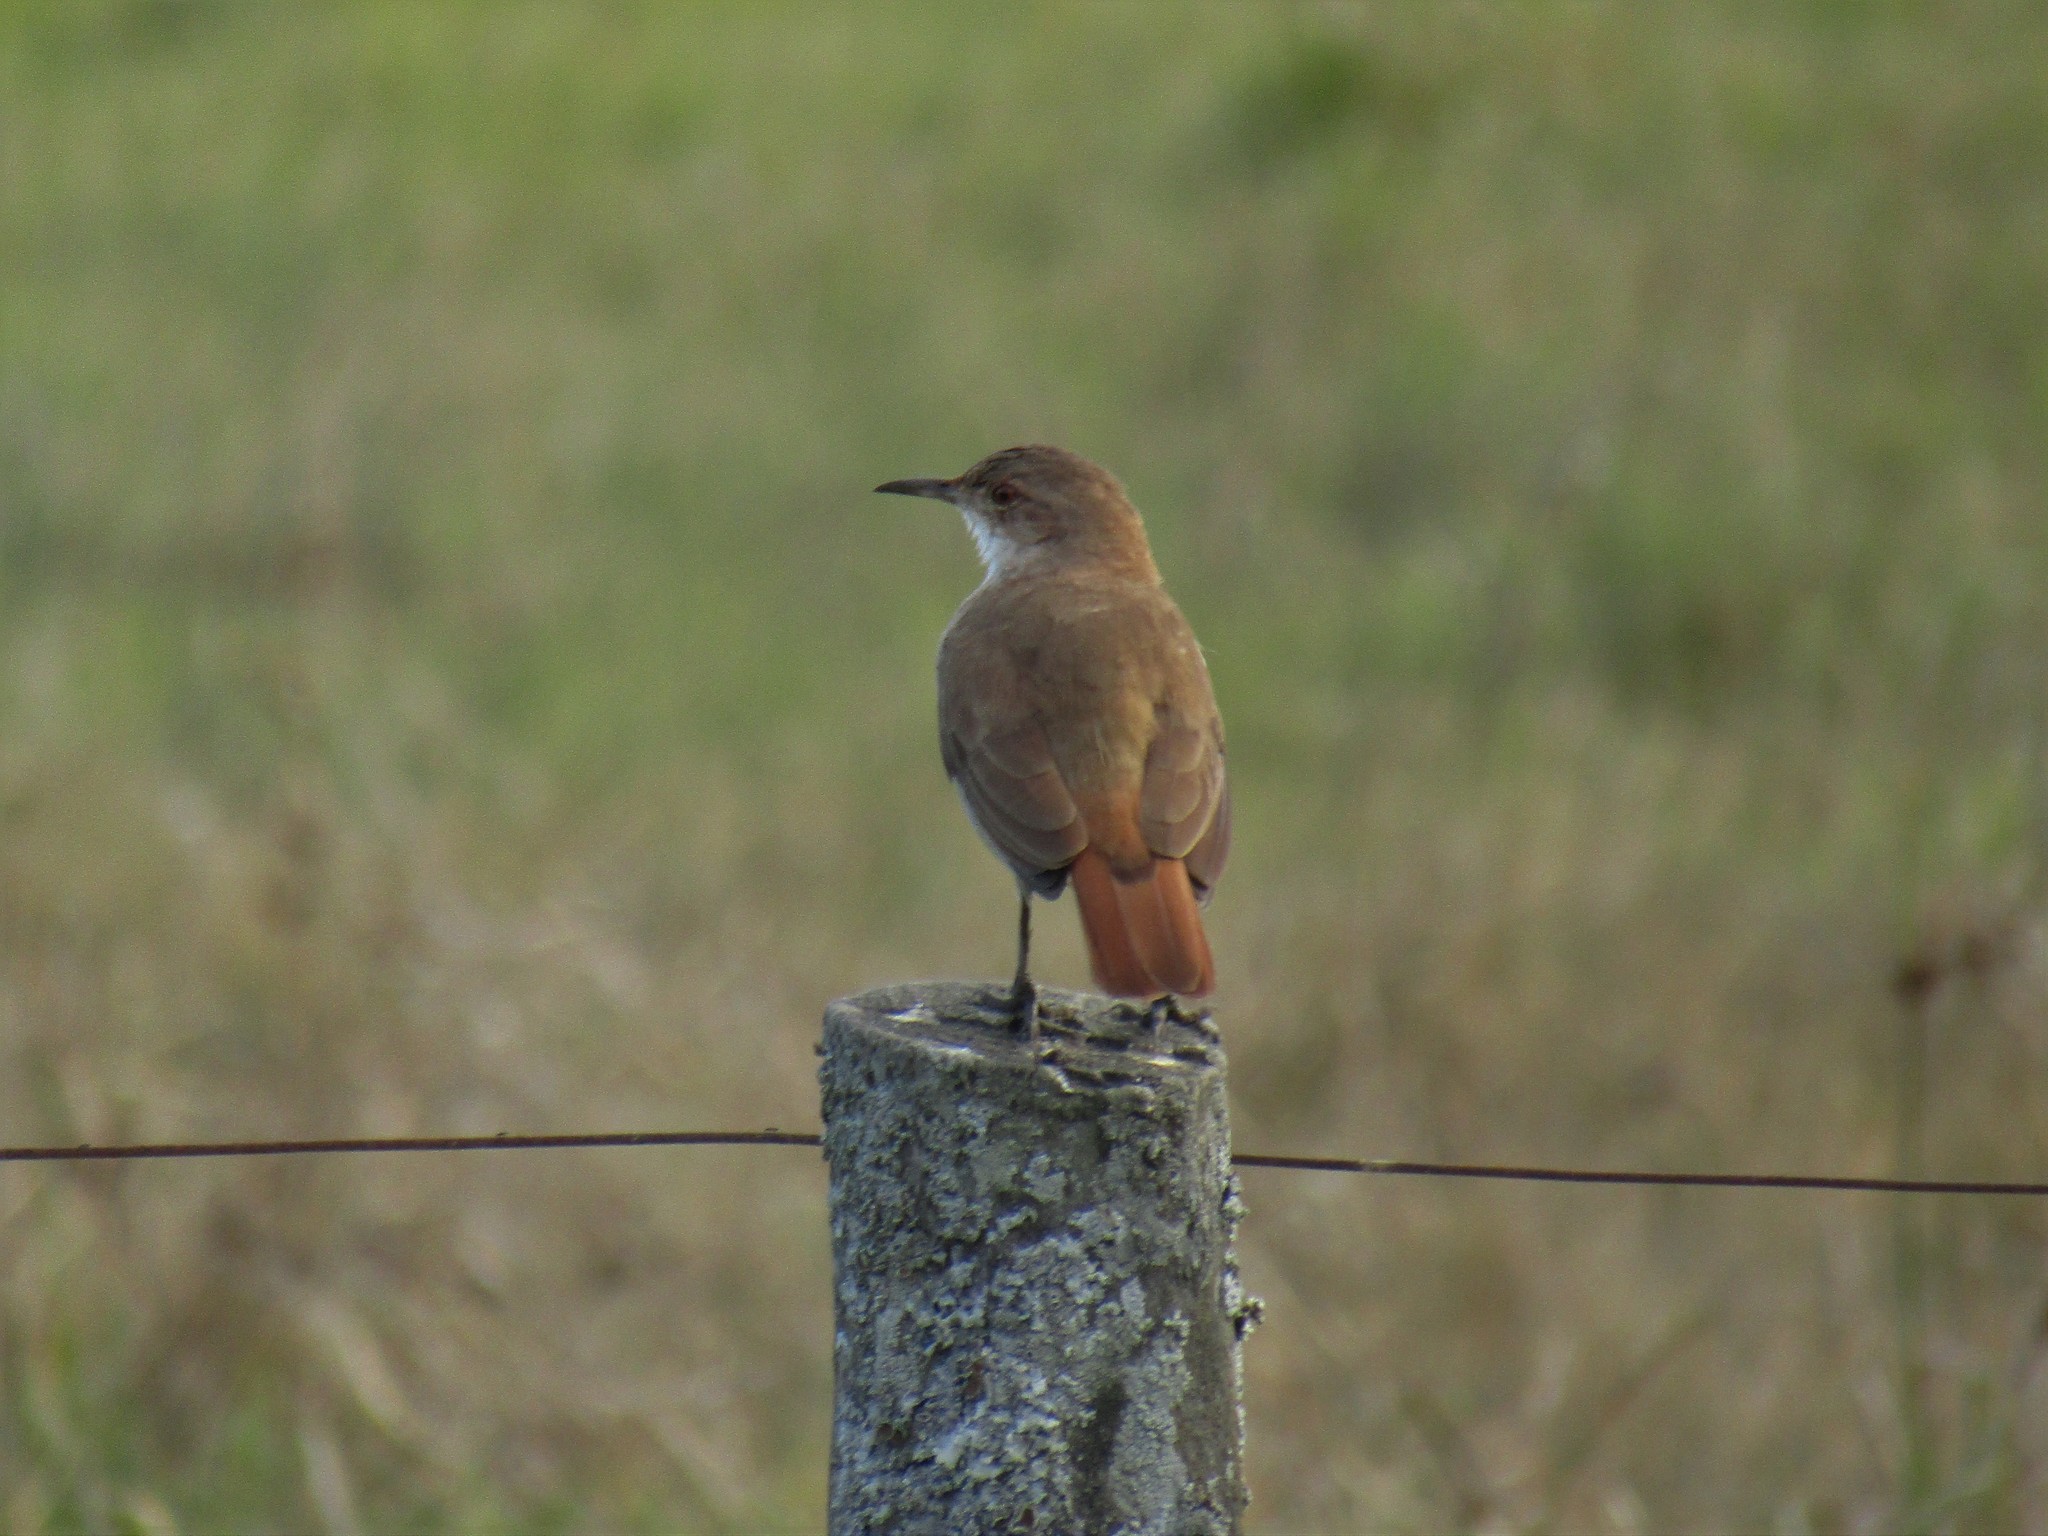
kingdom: Animalia
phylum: Chordata
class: Aves
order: Passeriformes
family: Furnariidae
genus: Furnarius
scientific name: Furnarius rufus
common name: Rufous hornero
